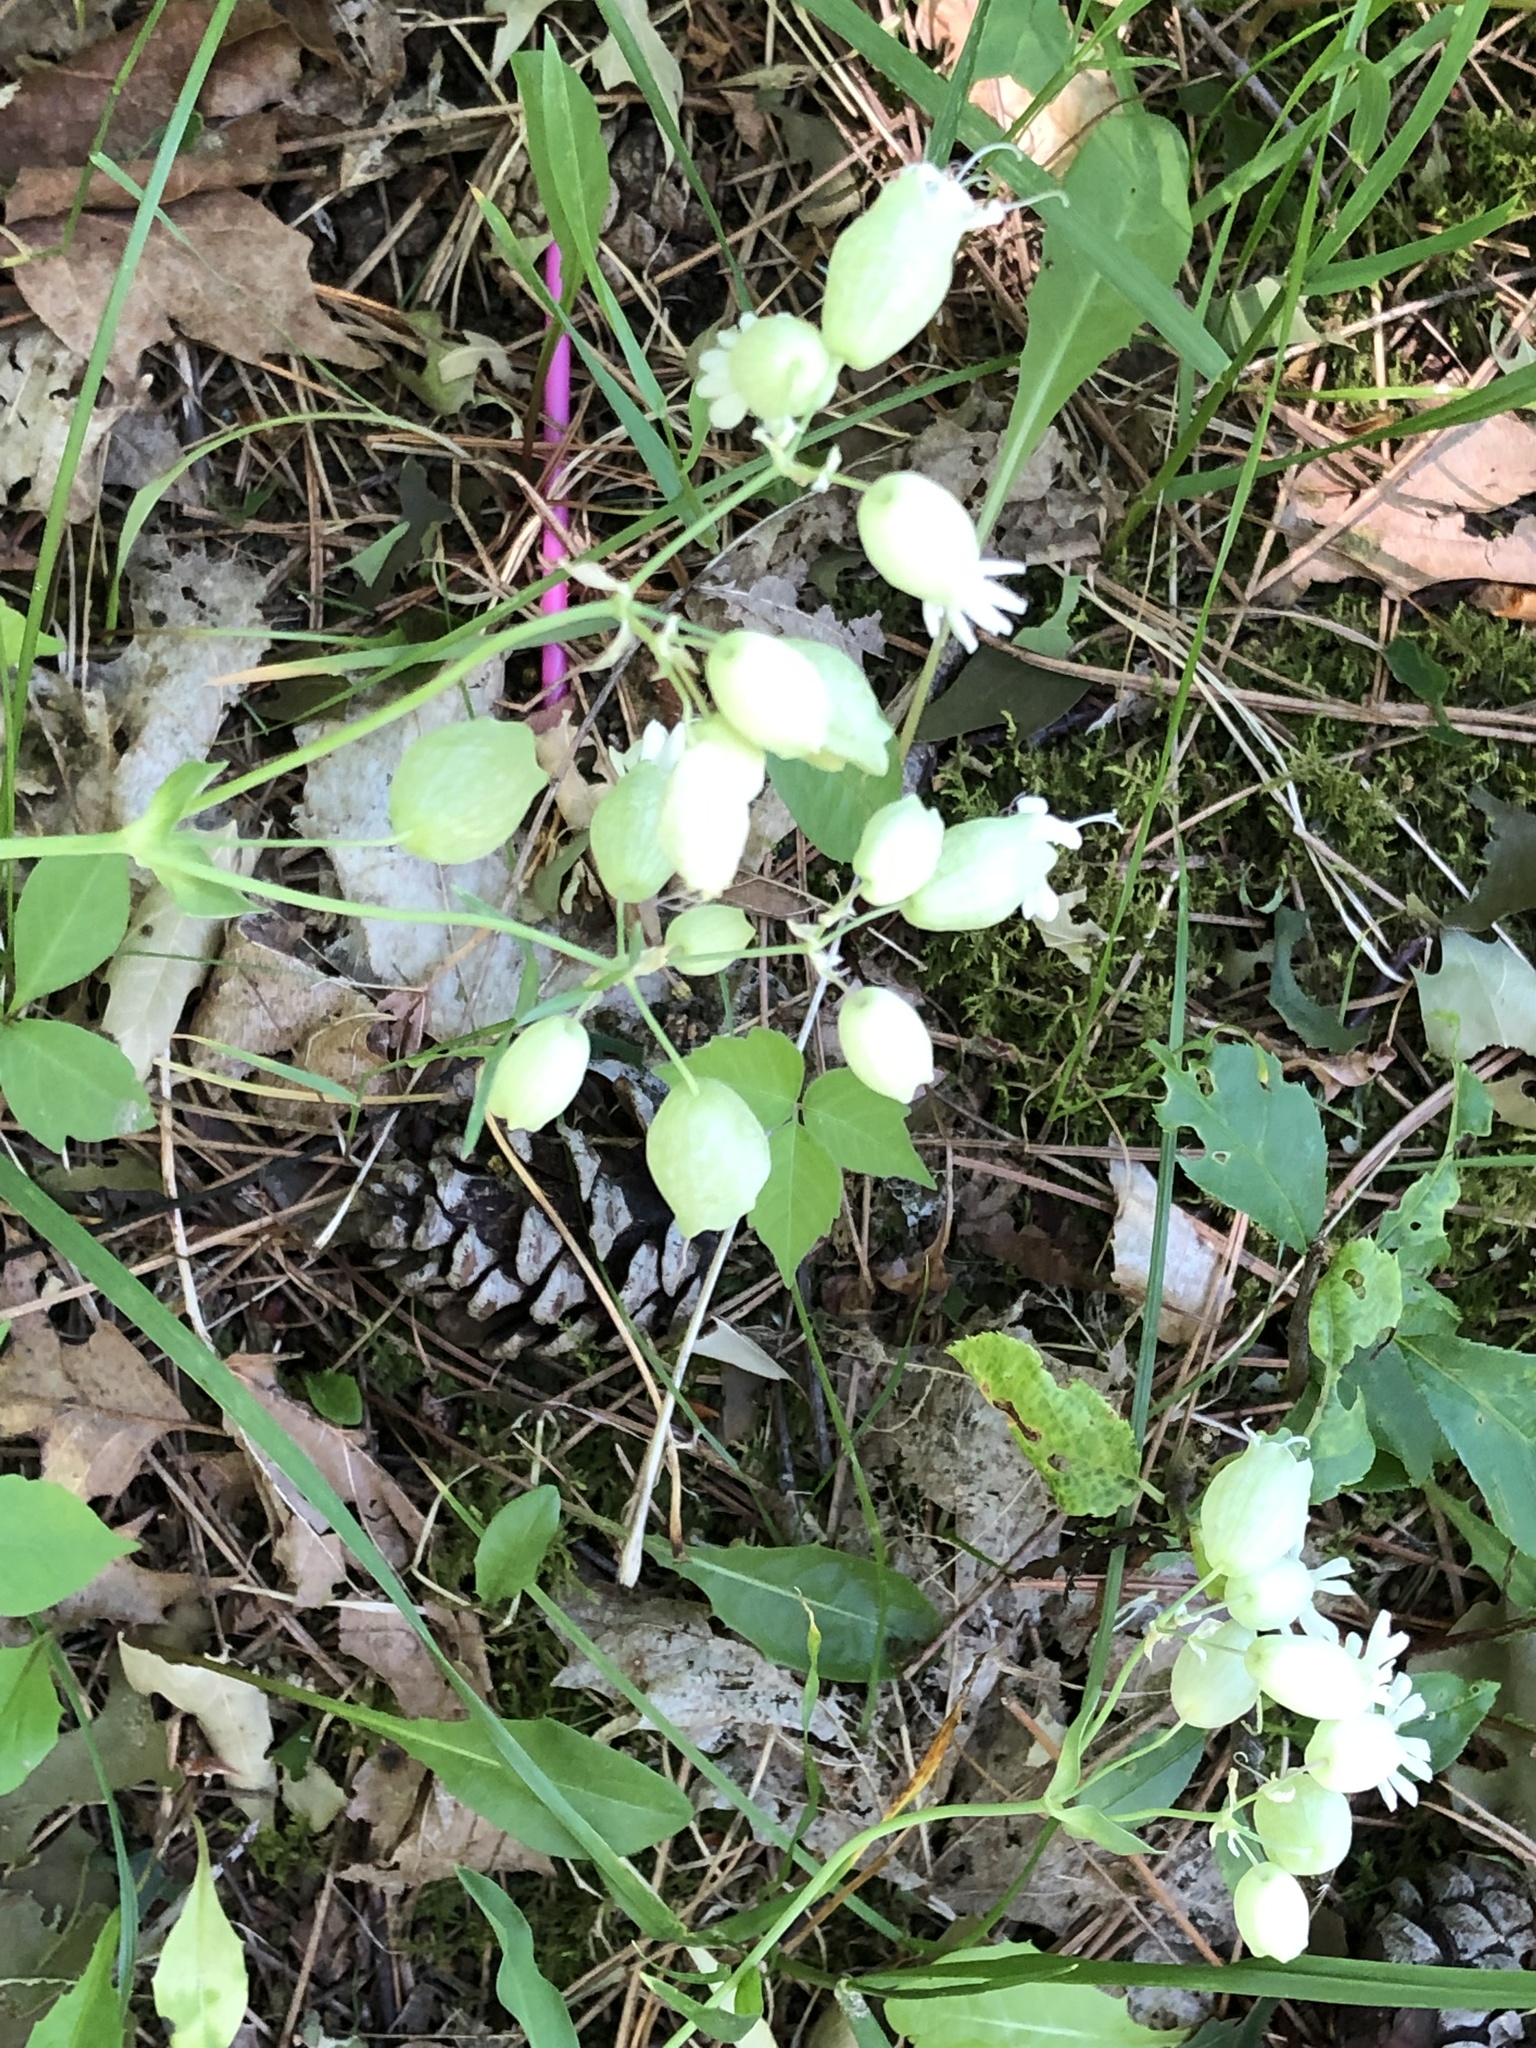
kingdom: Plantae
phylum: Tracheophyta
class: Magnoliopsida
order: Caryophyllales
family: Caryophyllaceae
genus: Silene
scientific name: Silene vulgaris
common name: Bladder campion
